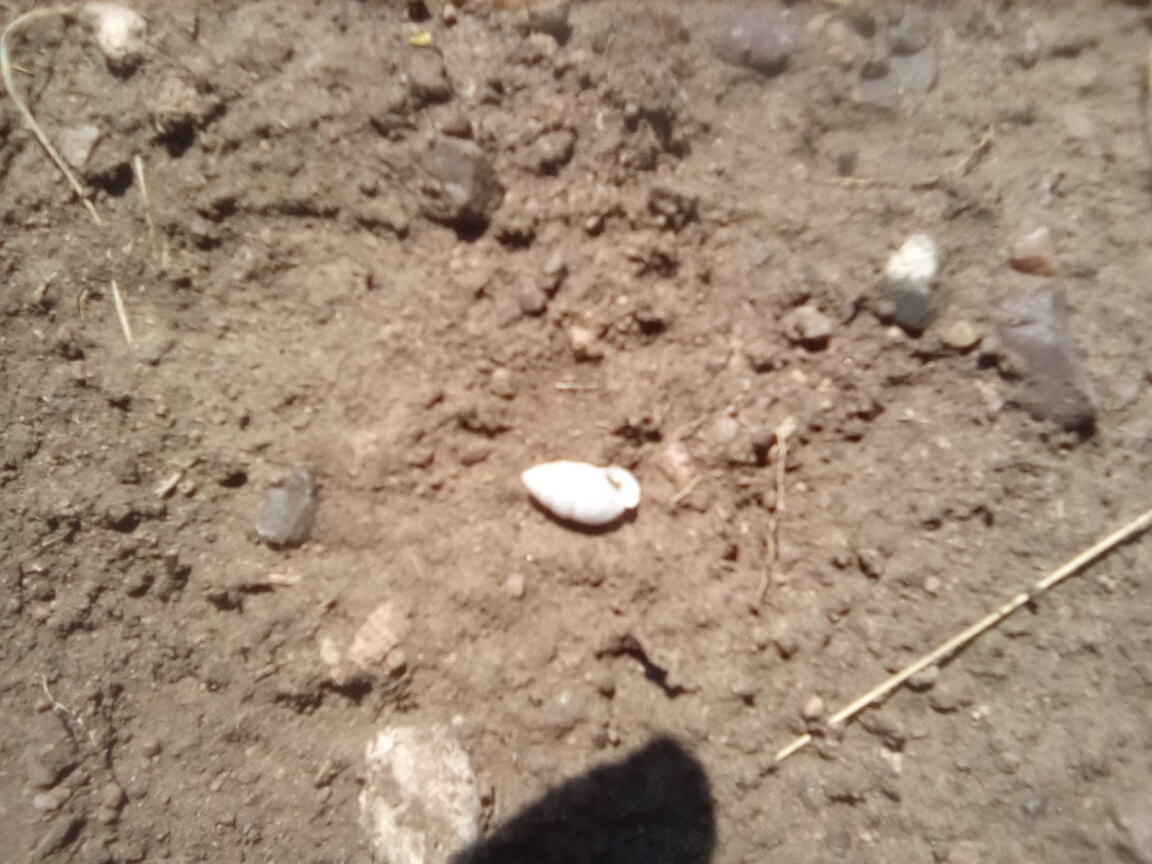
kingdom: Animalia
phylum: Mollusca
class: Gastropoda
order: Stylommatophora
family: Enidae
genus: Chondrula
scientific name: Chondrula tridens
